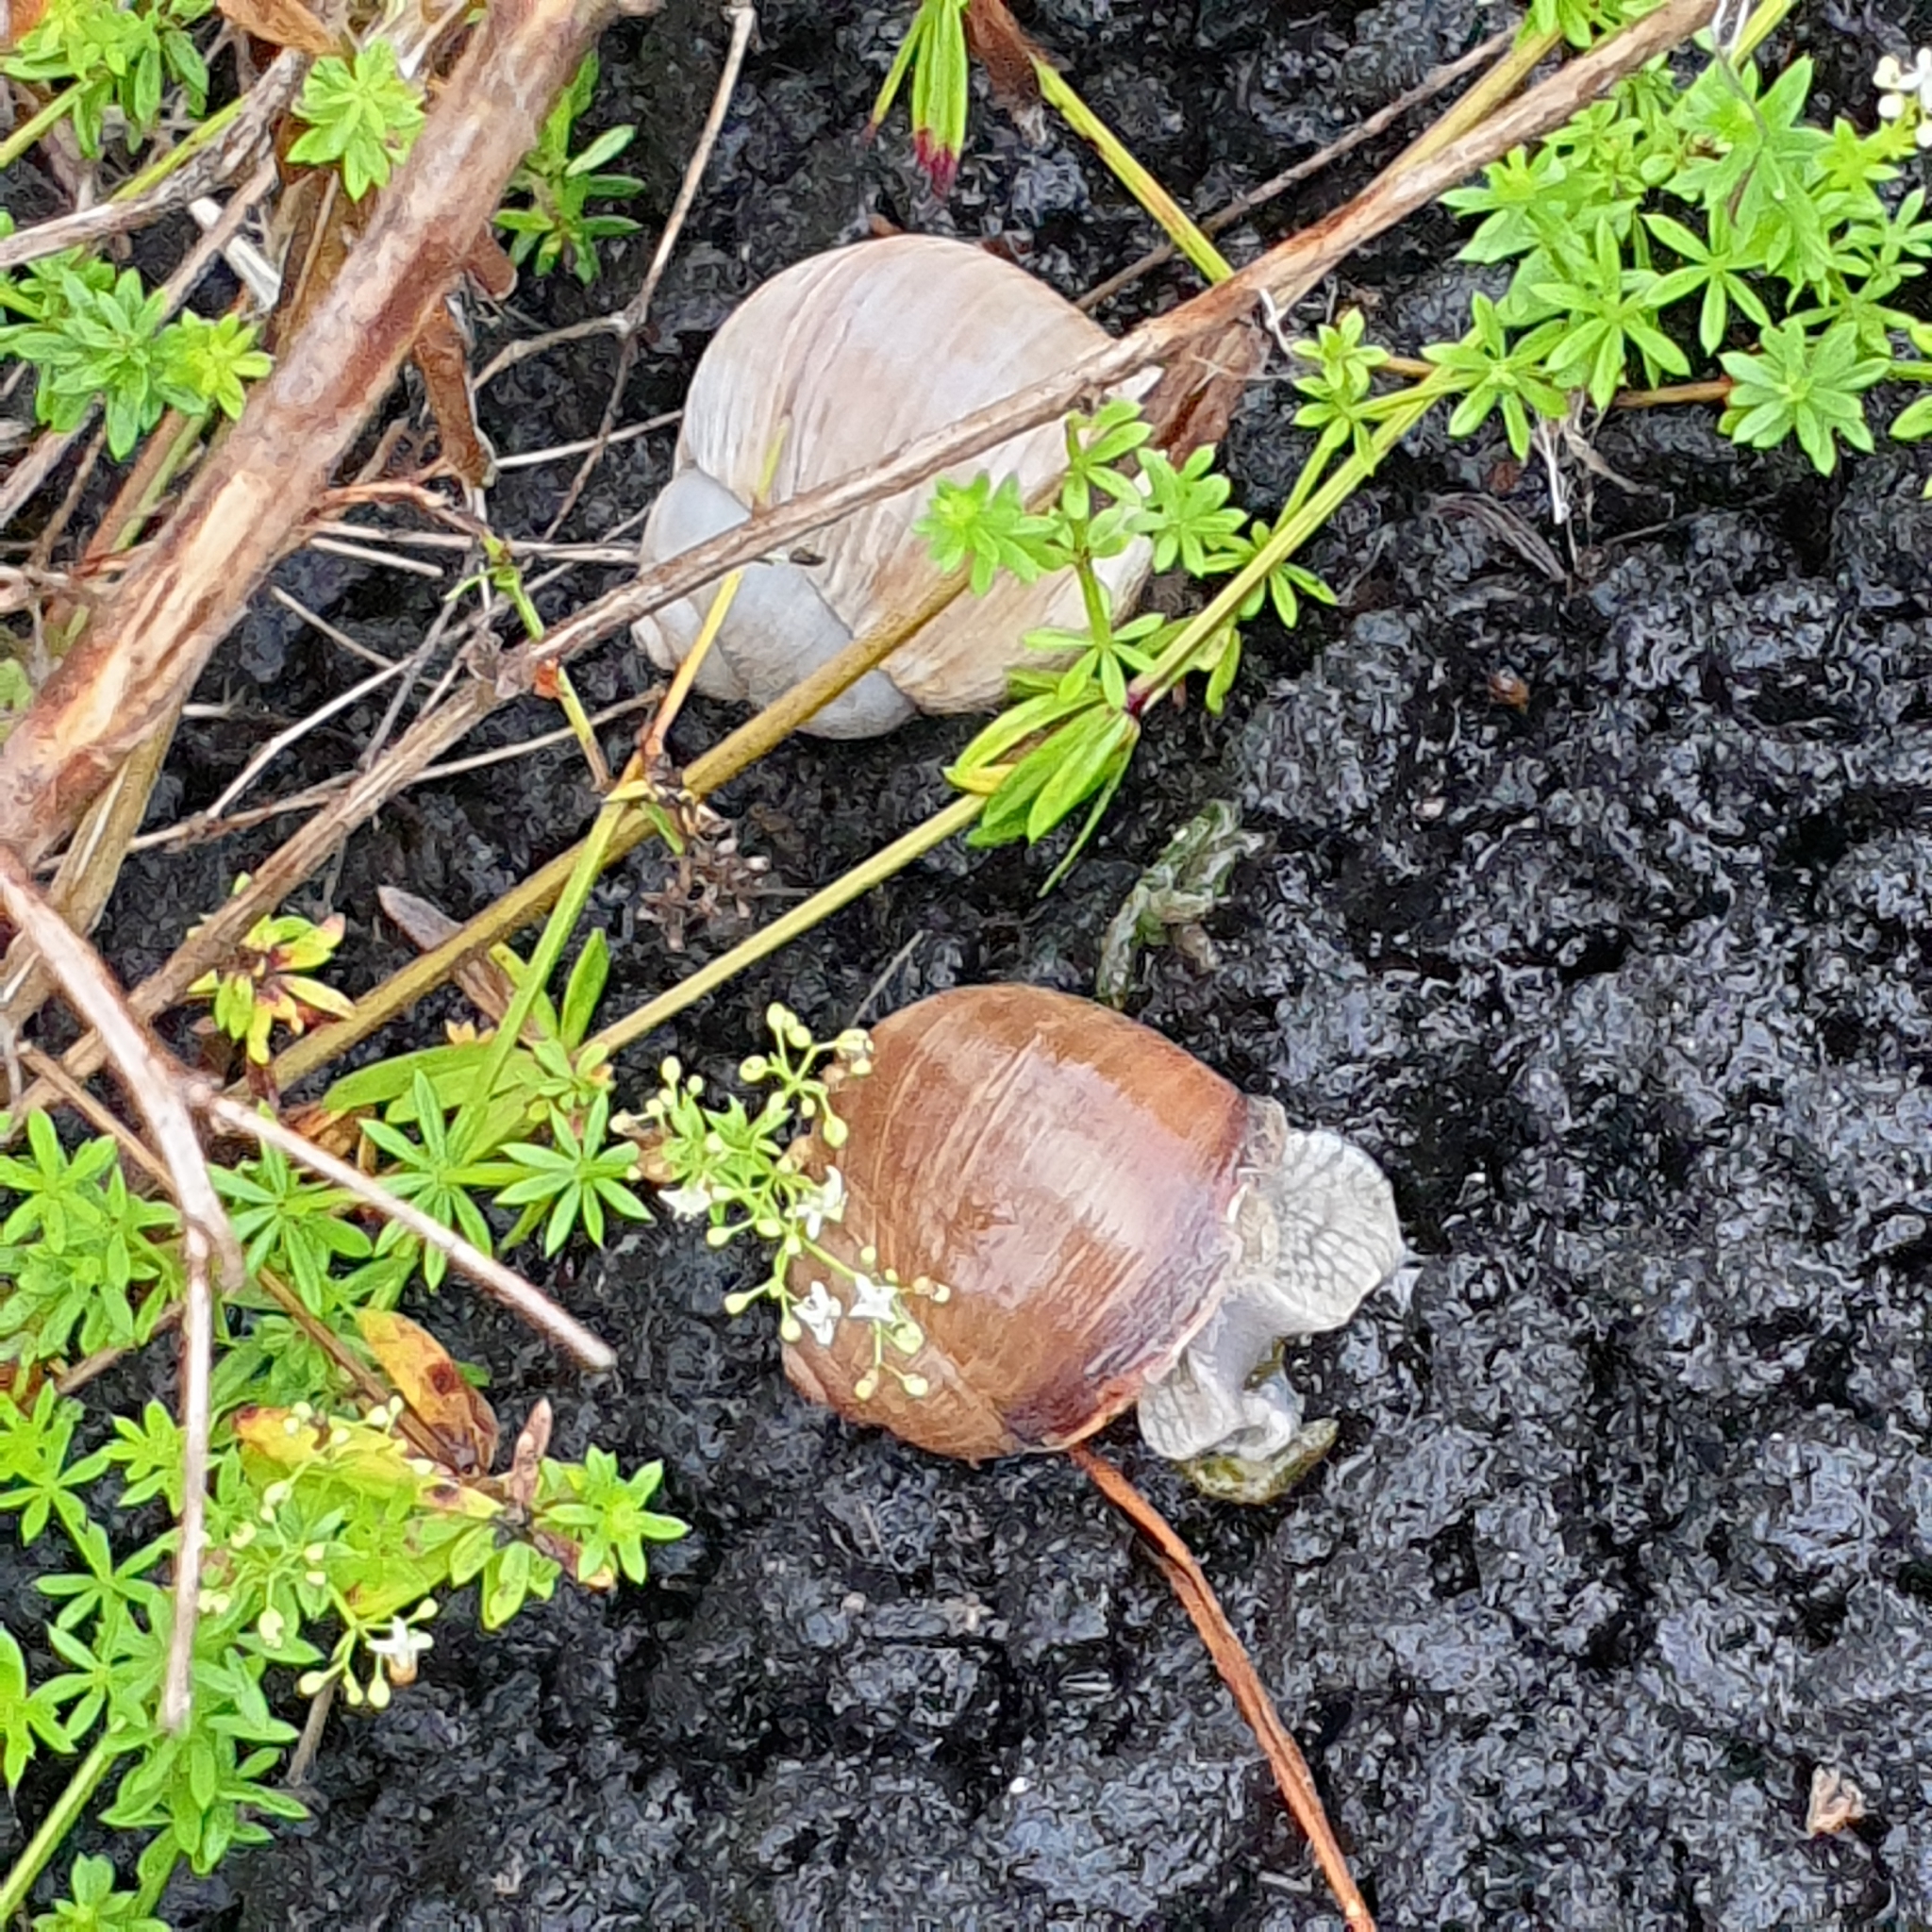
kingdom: Animalia
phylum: Mollusca
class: Gastropoda
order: Stylommatophora
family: Helicidae
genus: Helix
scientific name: Helix pomatia
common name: Roman snail
